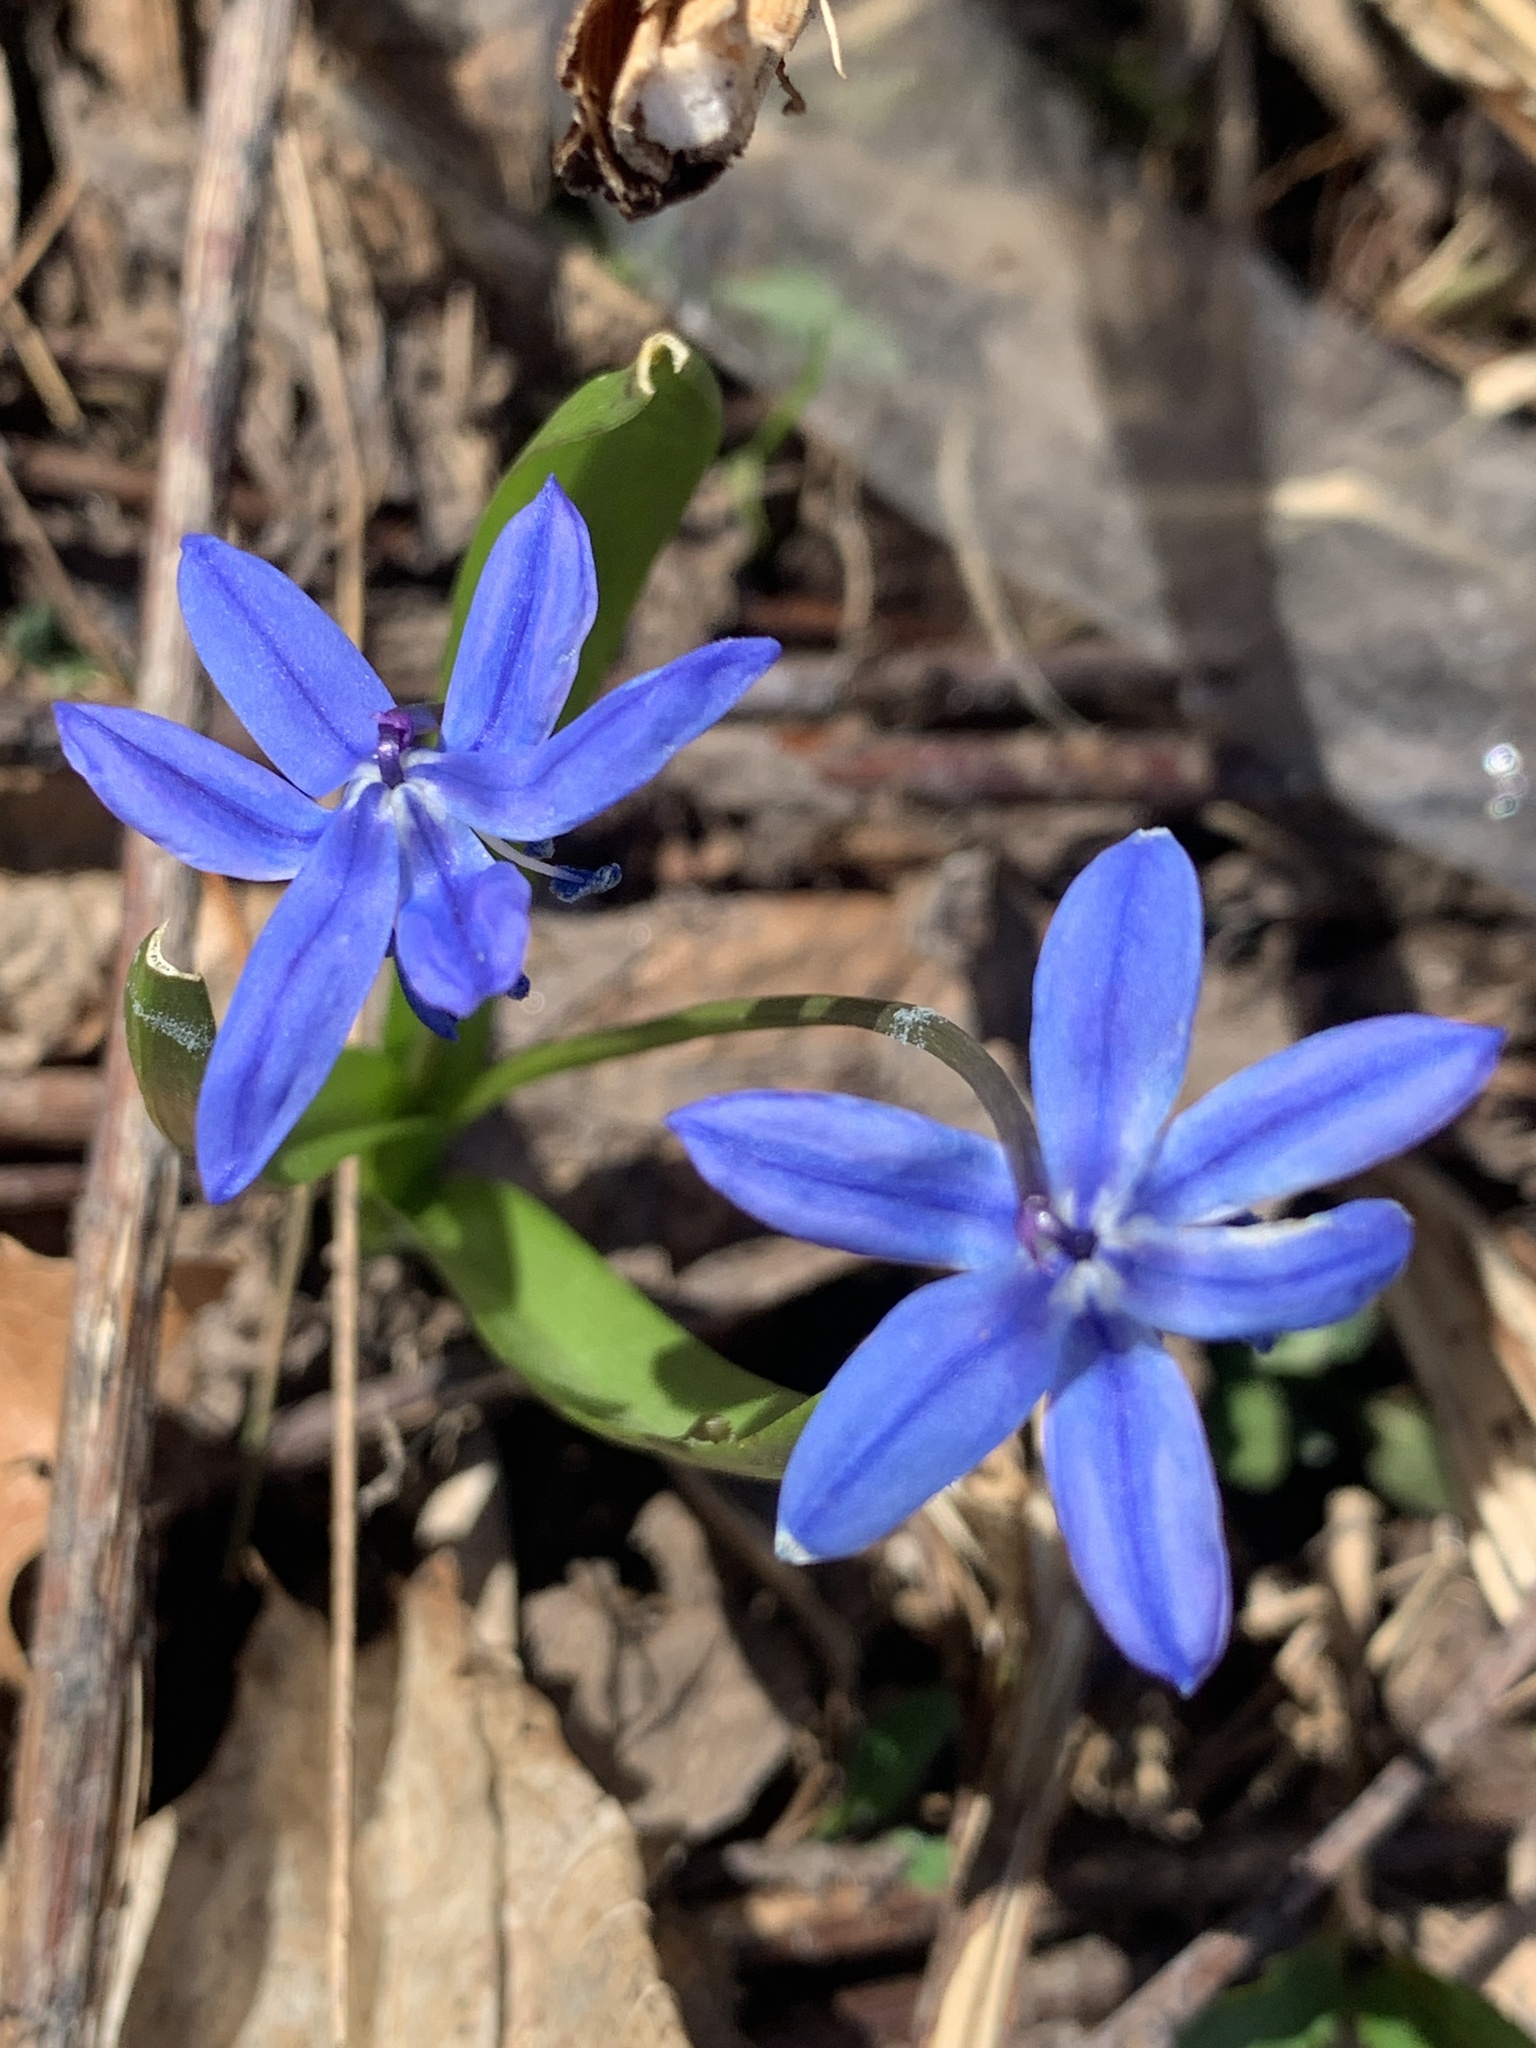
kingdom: Plantae
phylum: Tracheophyta
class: Liliopsida
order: Asparagales
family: Asparagaceae
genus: Scilla
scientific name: Scilla siberica
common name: Siberian squill
